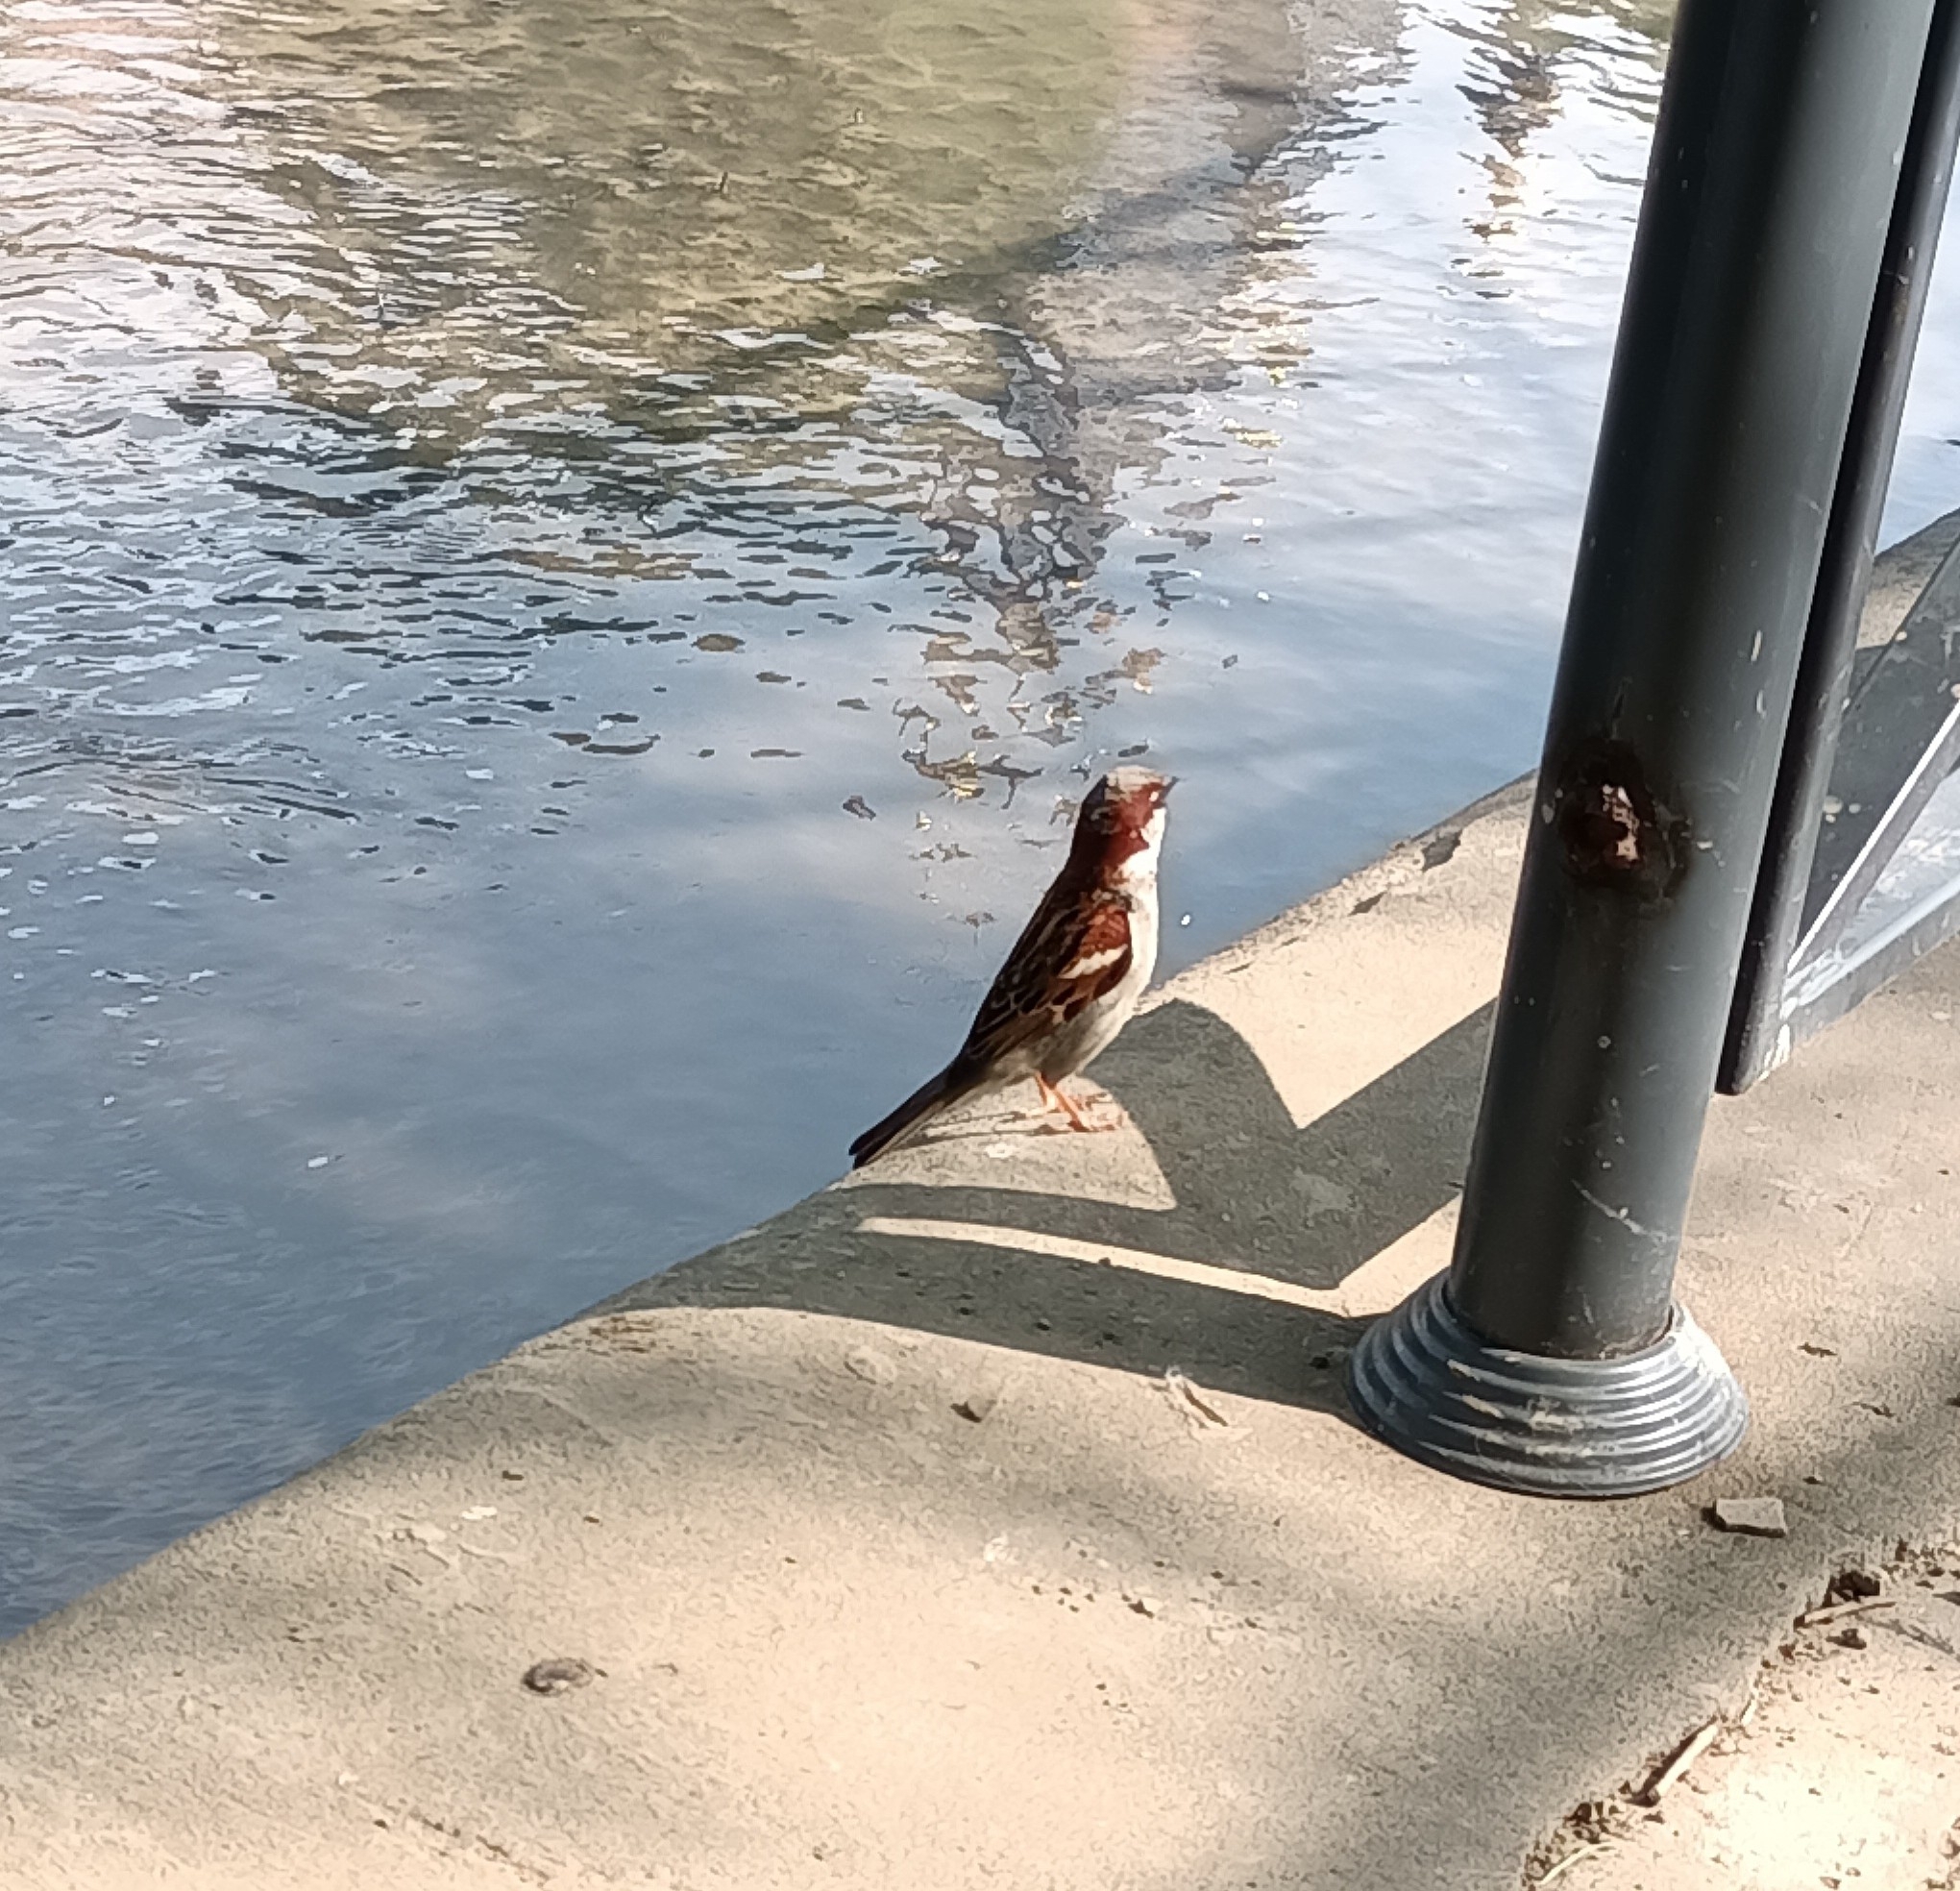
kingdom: Animalia
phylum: Chordata
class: Aves
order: Passeriformes
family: Passeridae
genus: Passer
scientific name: Passer domesticus
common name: House sparrow
